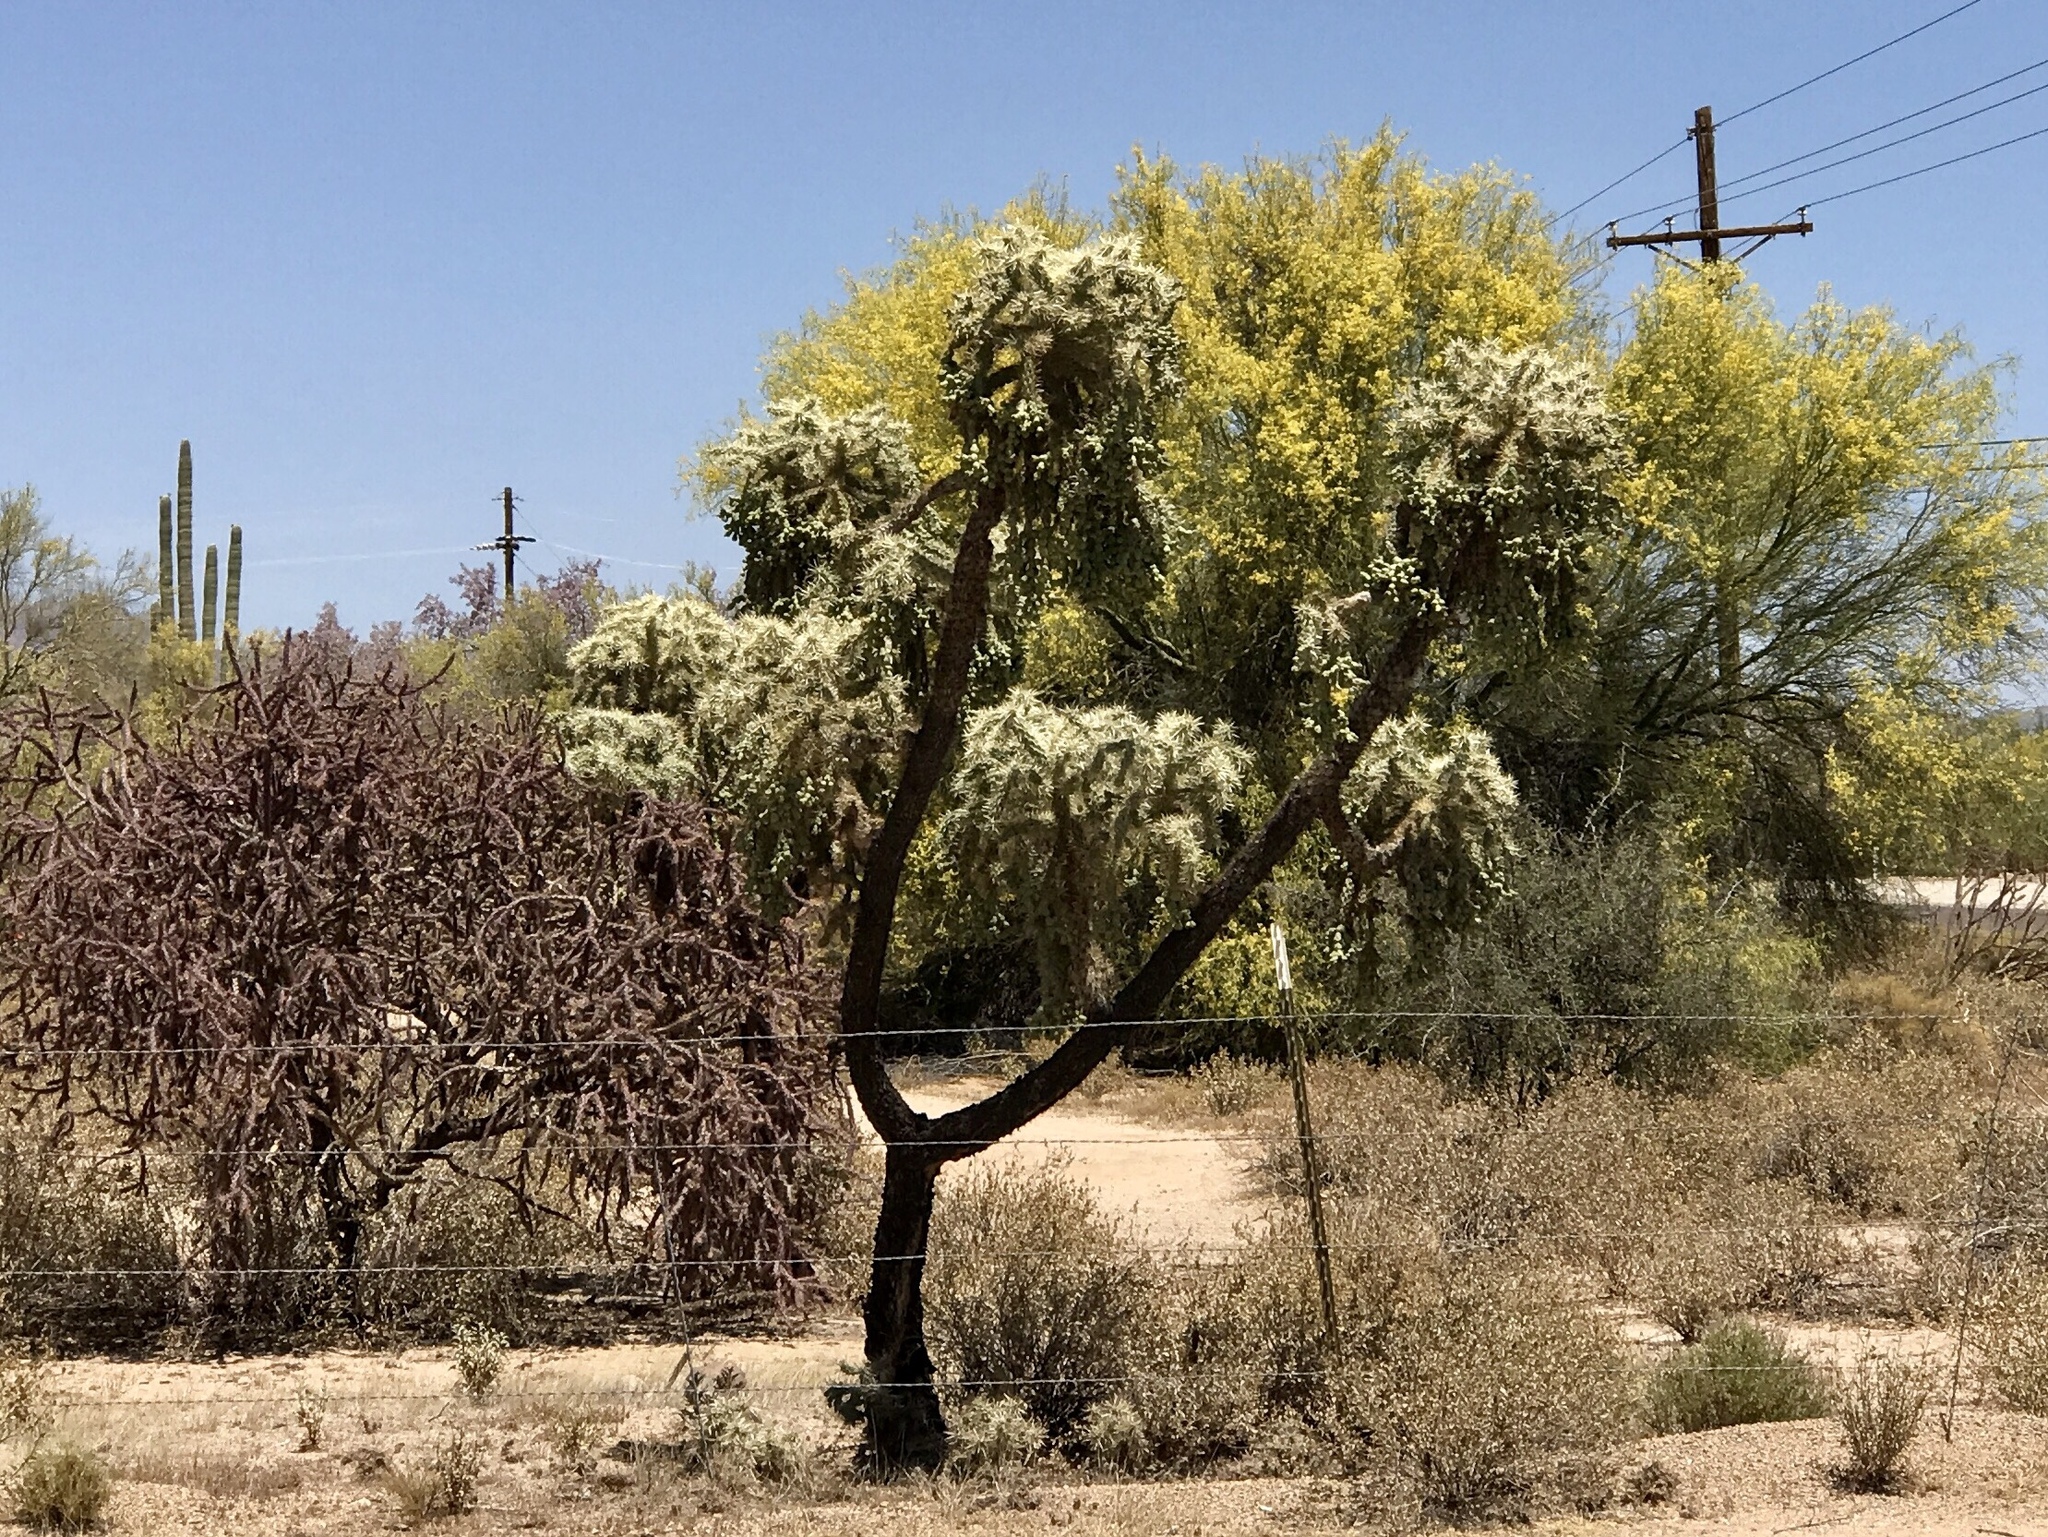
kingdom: Plantae
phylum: Tracheophyta
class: Magnoliopsida
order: Caryophyllales
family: Cactaceae
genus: Cylindropuntia
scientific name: Cylindropuntia fulgida
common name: Jumping cholla
